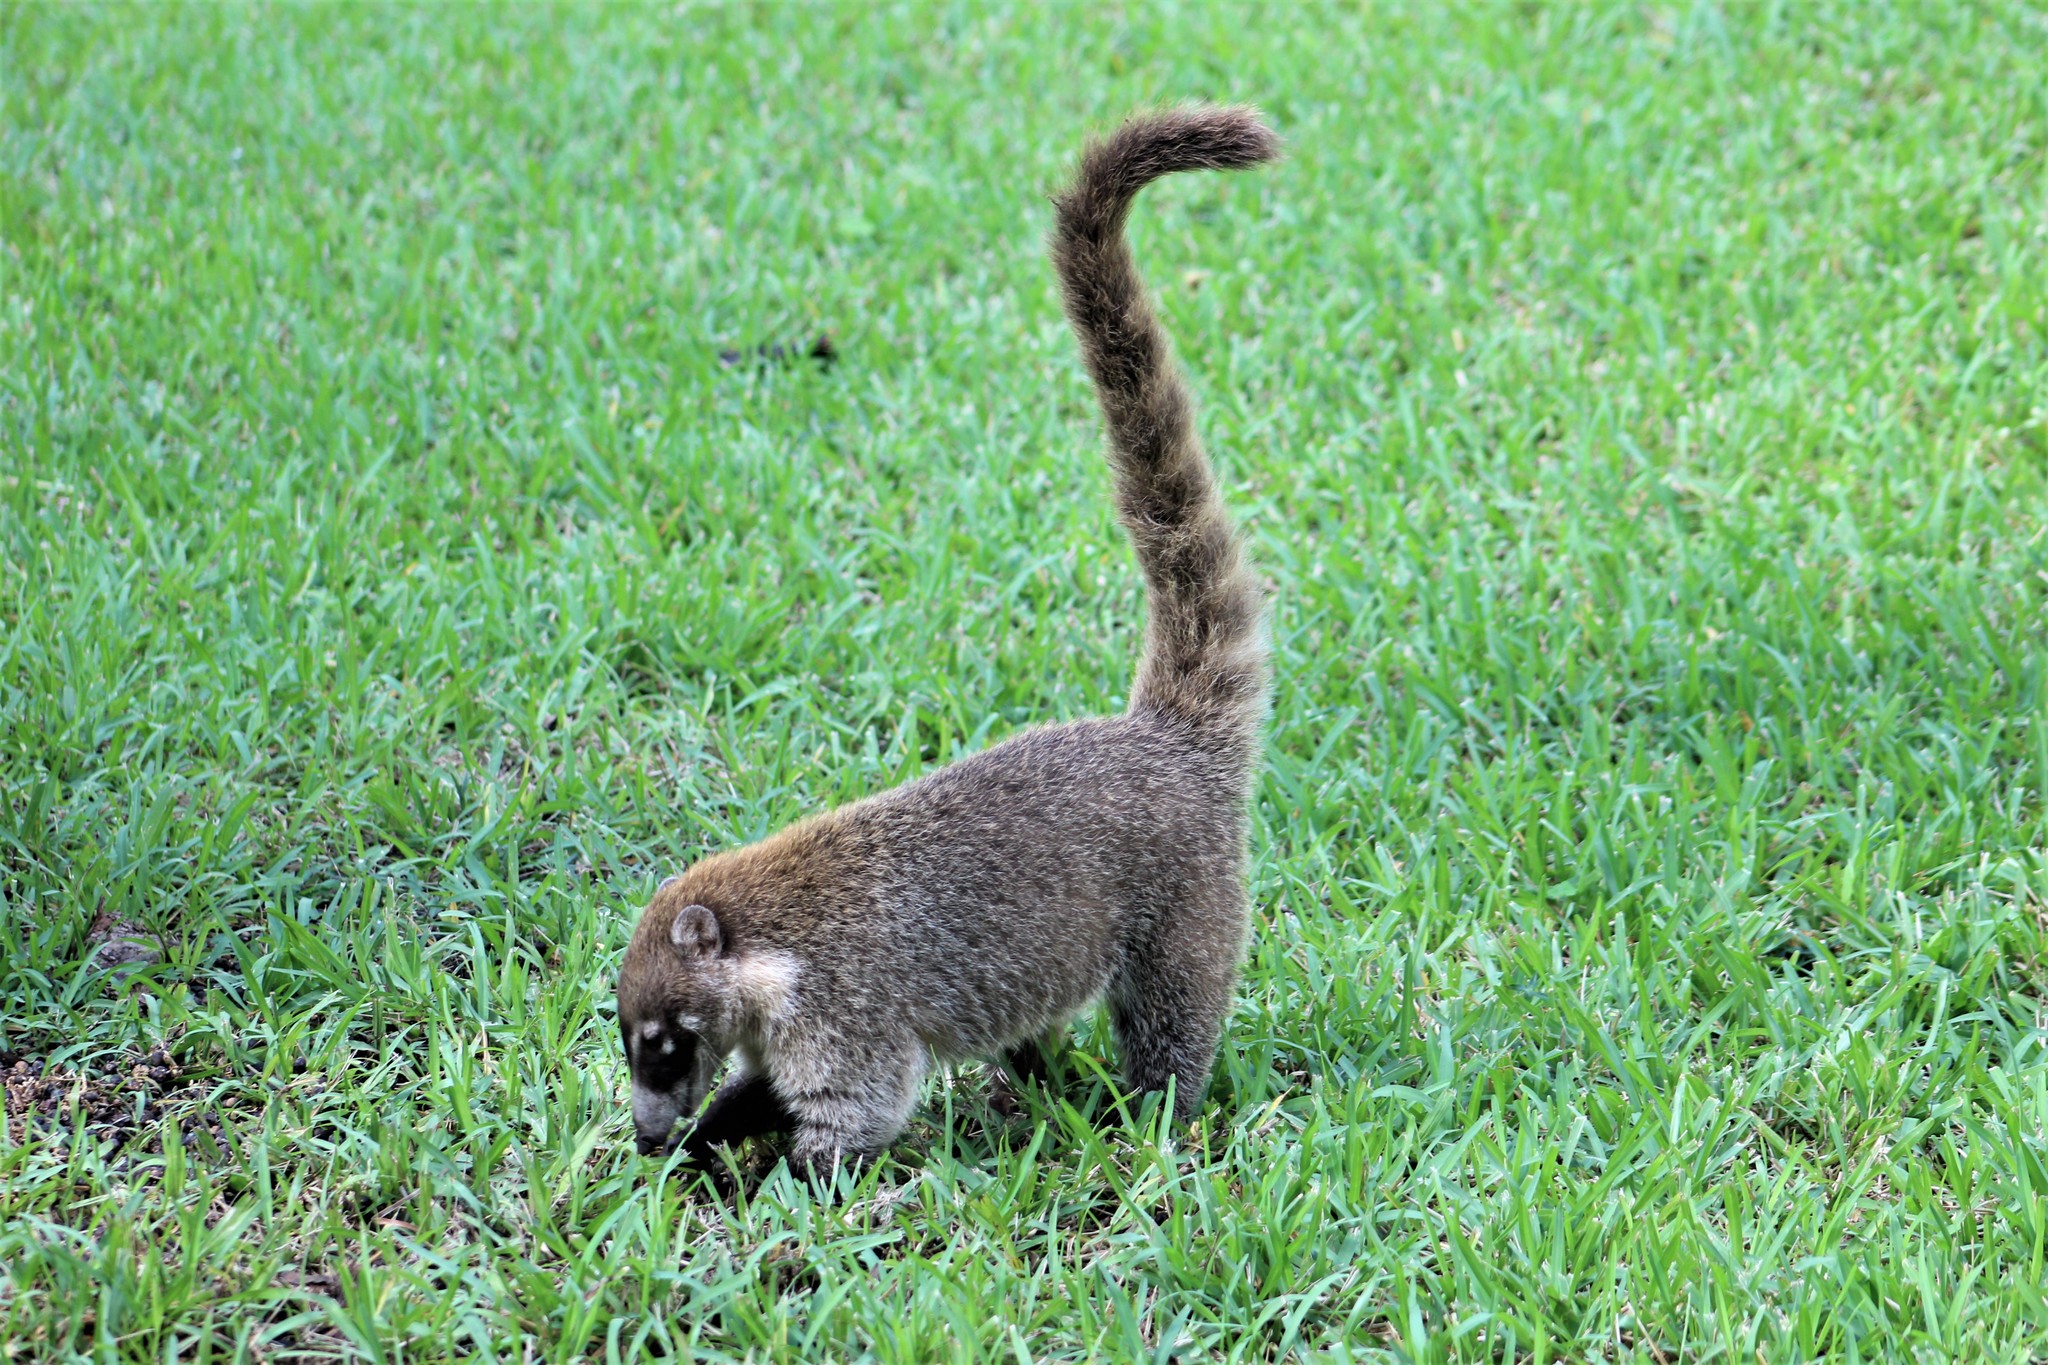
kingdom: Animalia
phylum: Chordata
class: Mammalia
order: Carnivora
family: Procyonidae
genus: Nasua
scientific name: Nasua narica
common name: White-nosed coati
